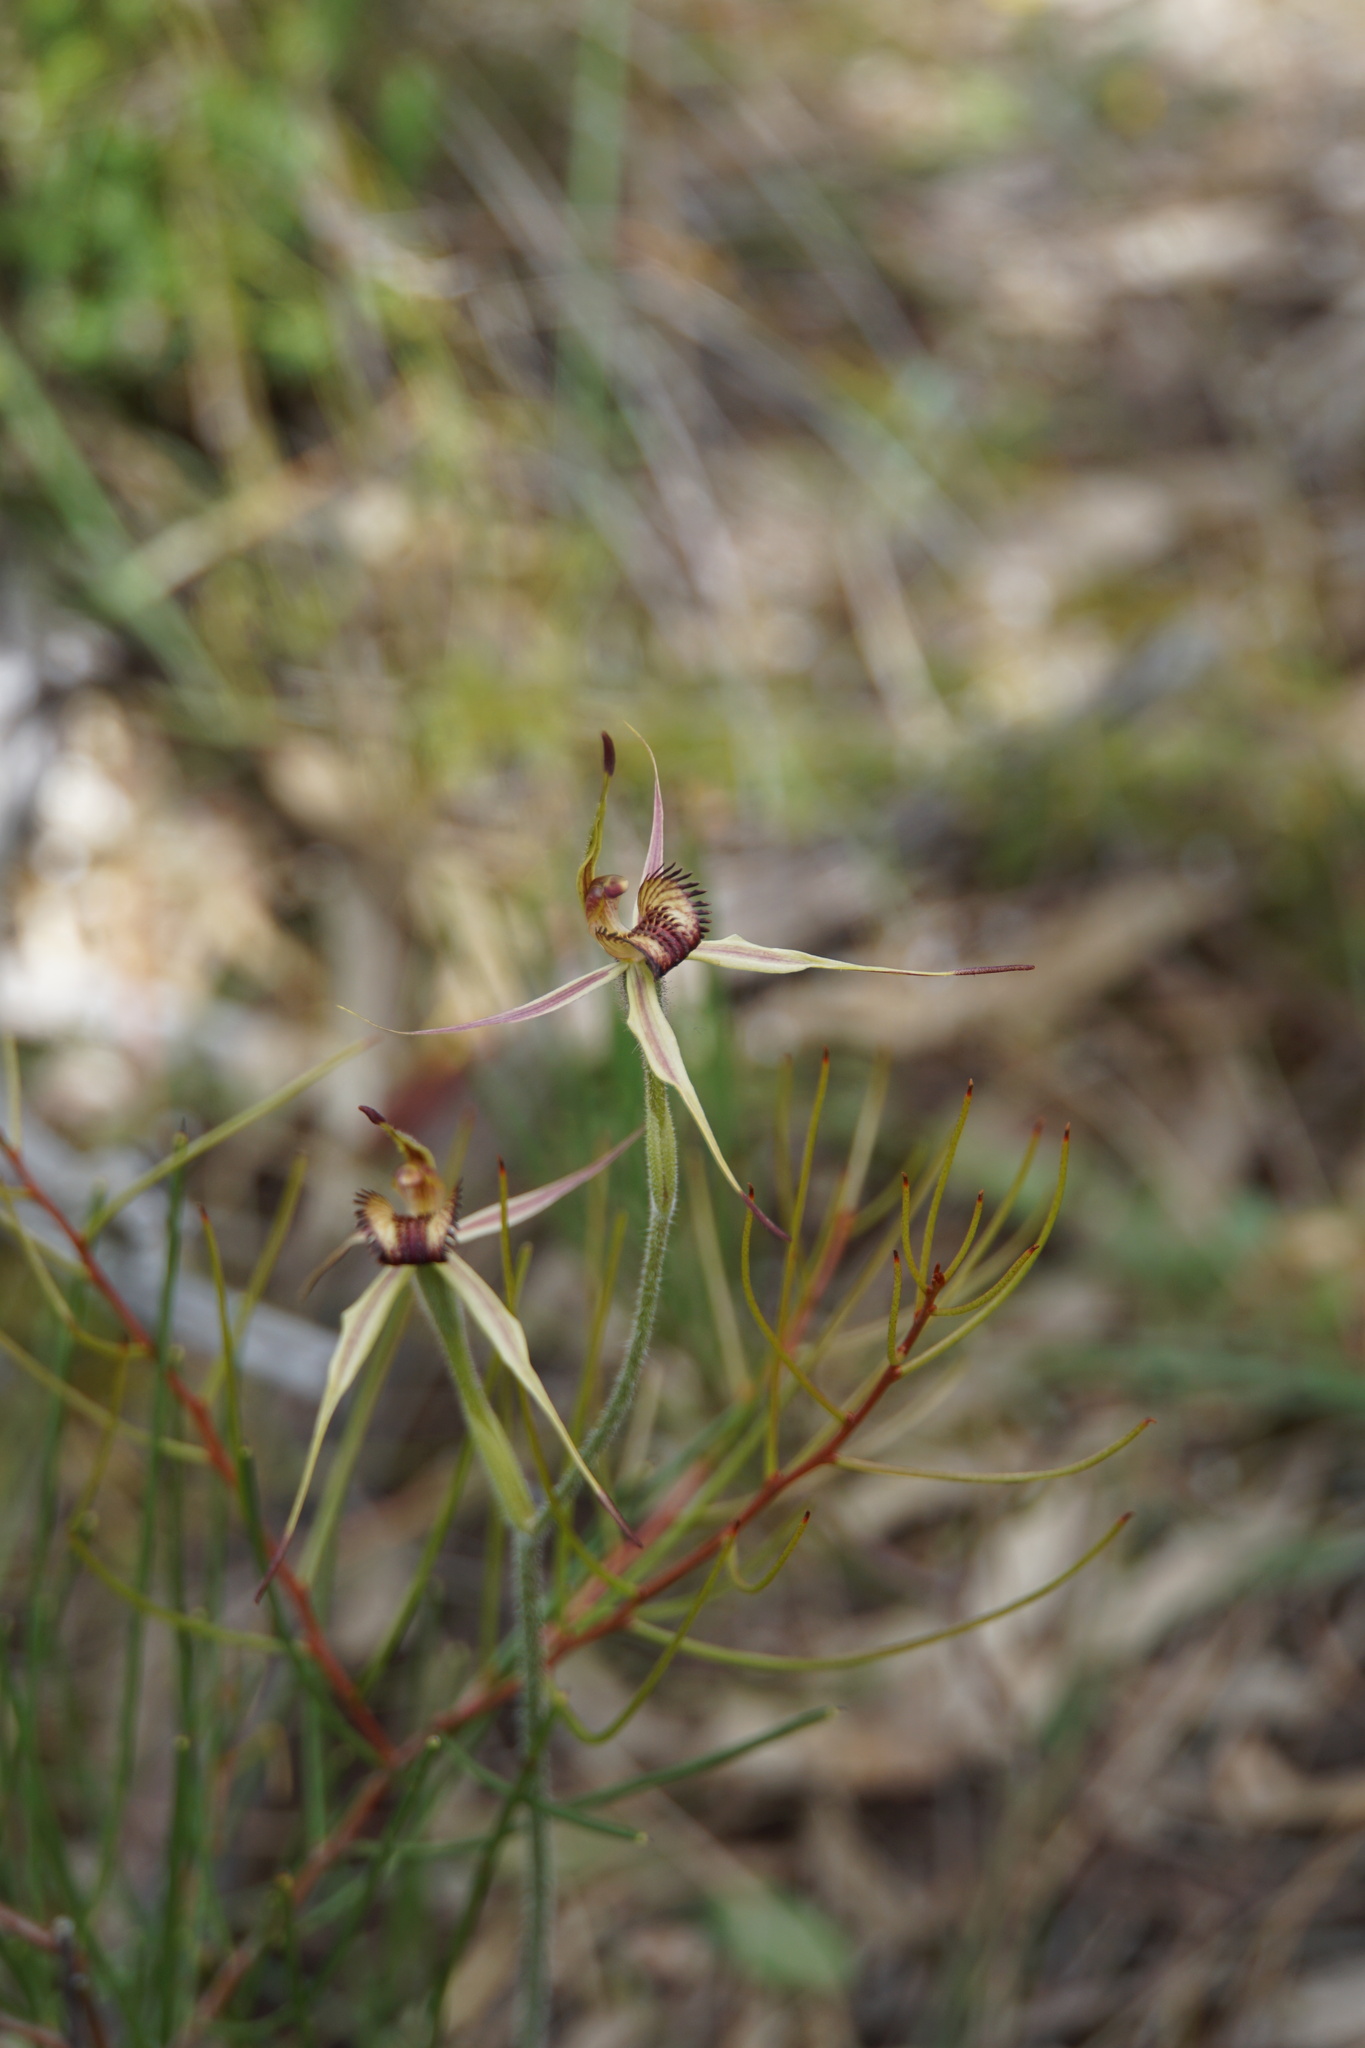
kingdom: Plantae
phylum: Tracheophyta
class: Liliopsida
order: Asparagales
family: Orchidaceae
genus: Caladenia
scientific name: Caladenia reticulata
